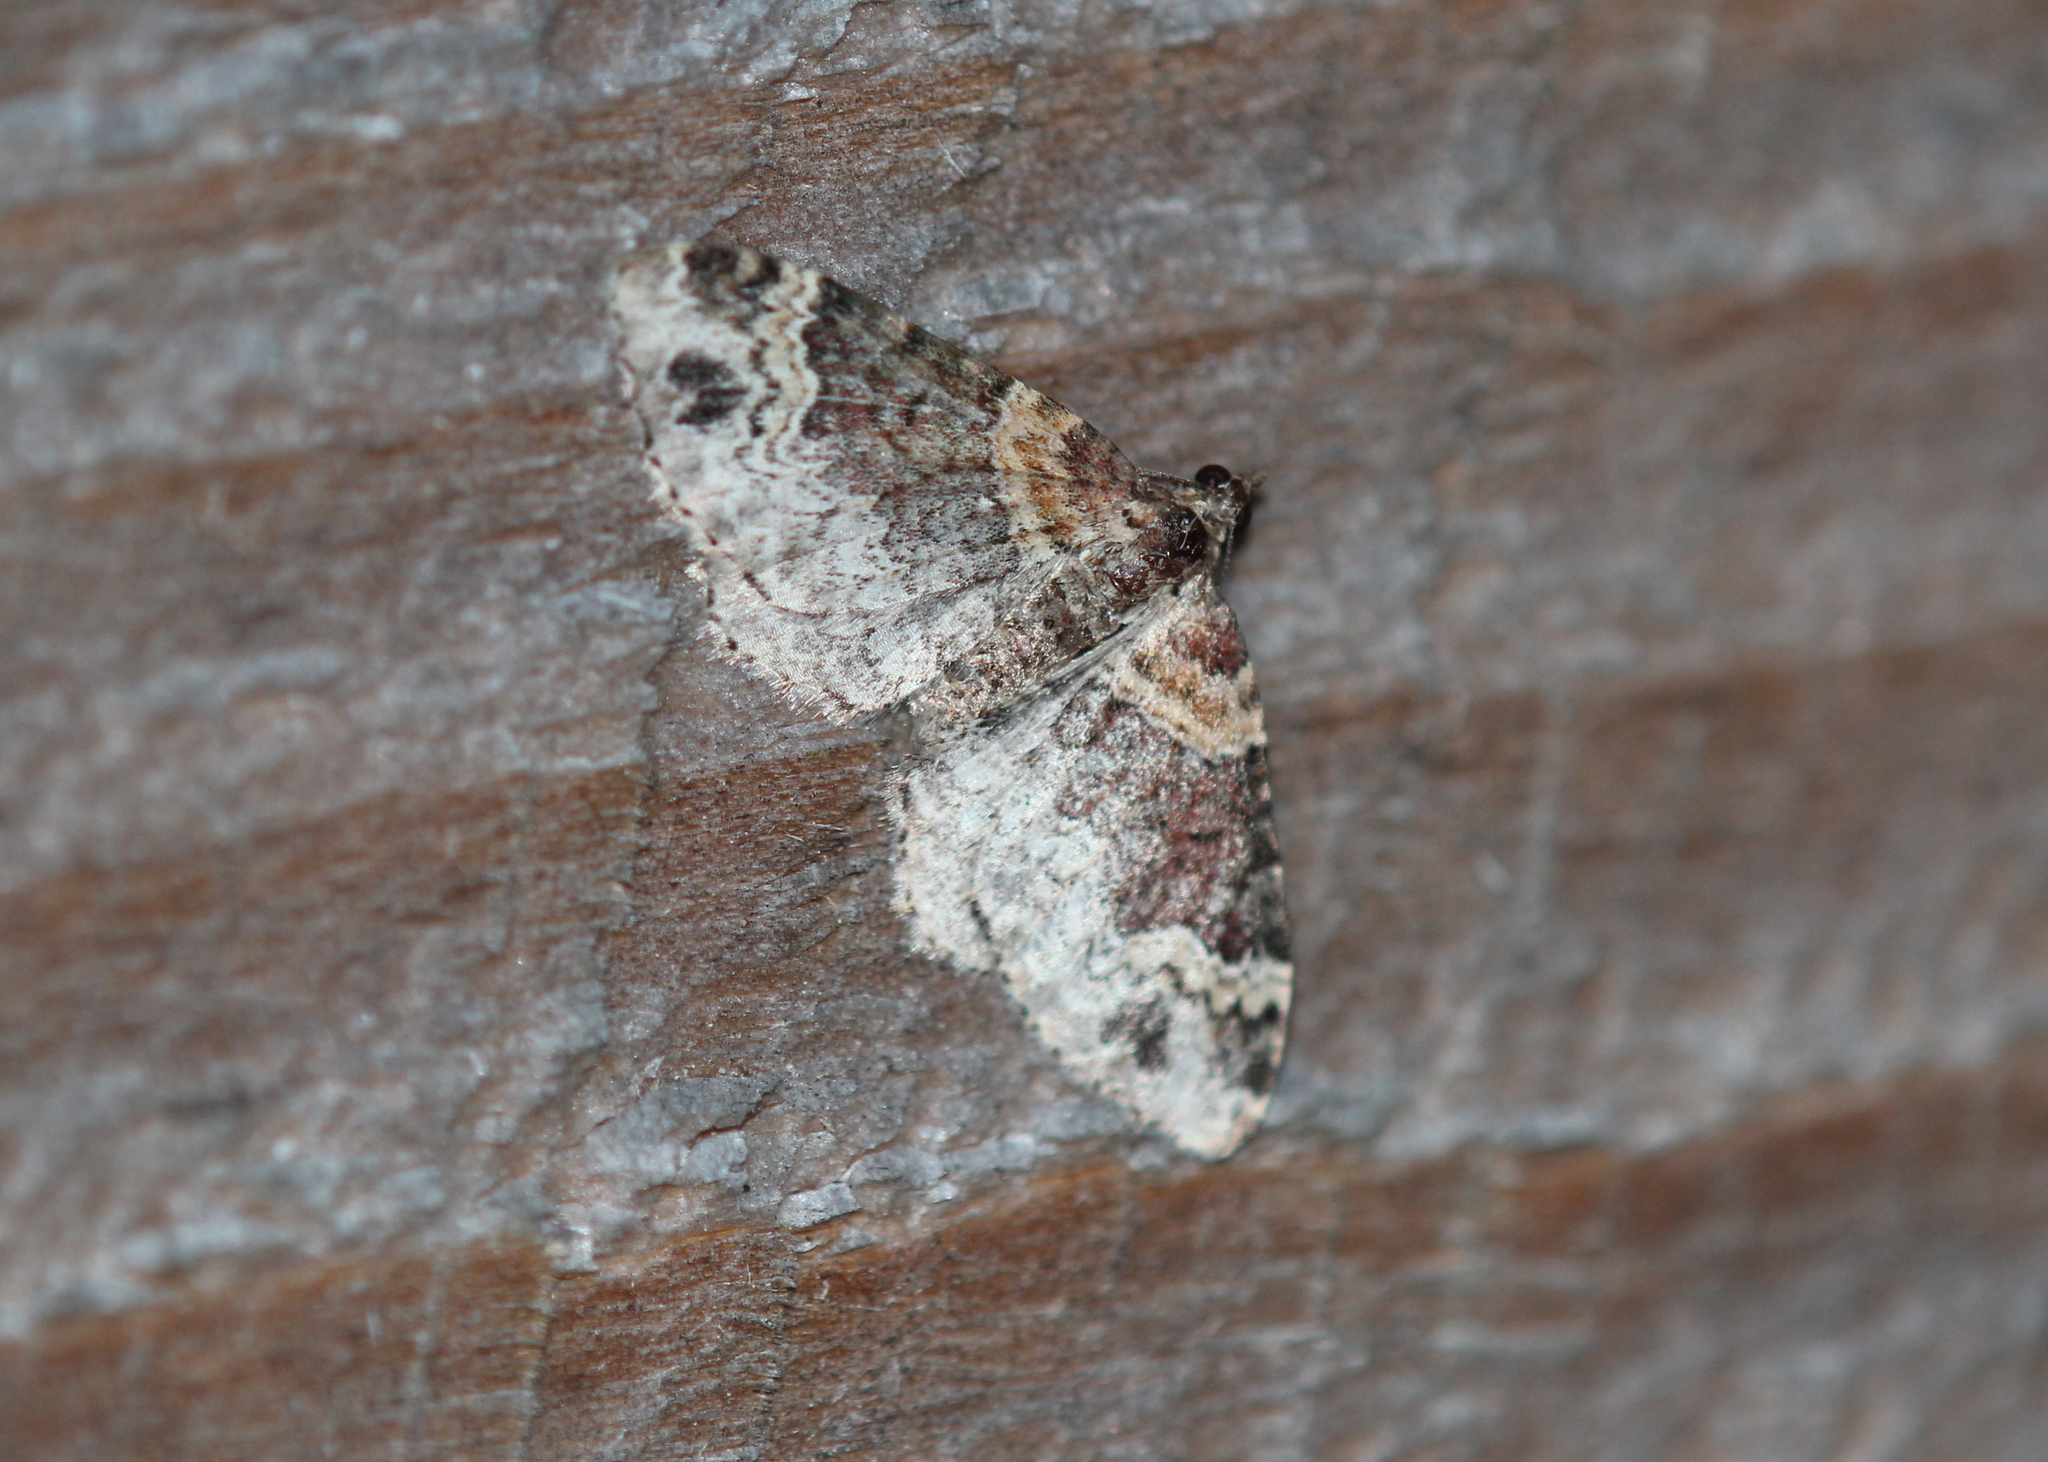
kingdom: Animalia
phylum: Arthropoda
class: Insecta
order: Lepidoptera
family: Geometridae
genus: Xanthorhoe
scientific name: Xanthorhoe ferrugata
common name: Dark-barred twin-spot carpet
